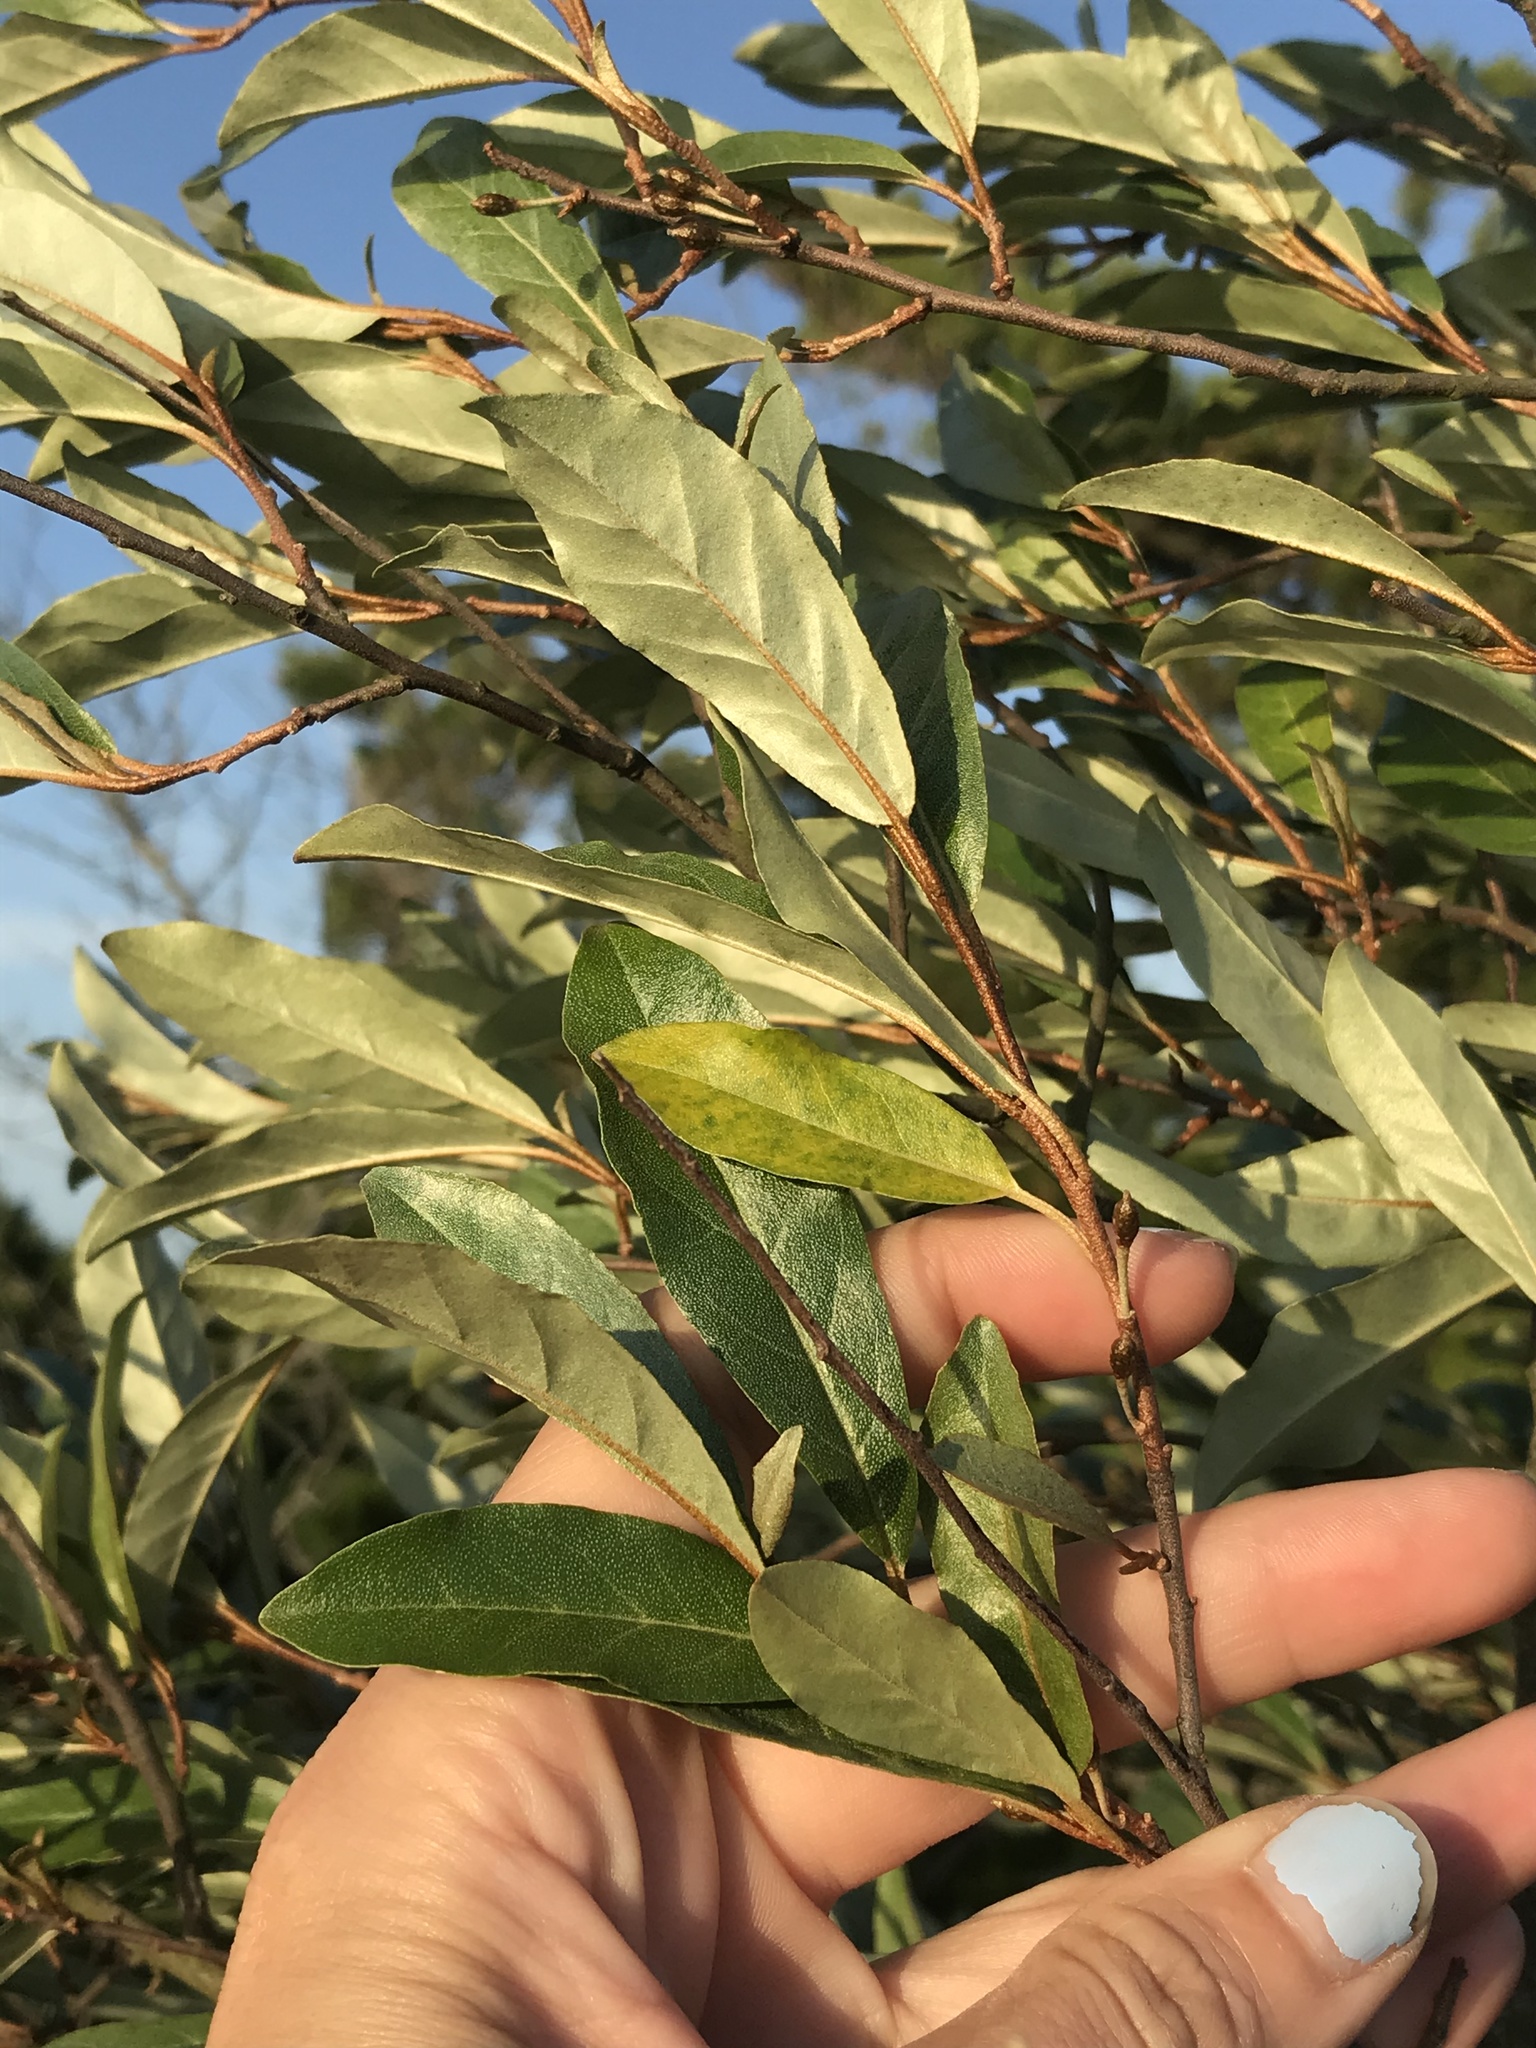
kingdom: Plantae
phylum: Tracheophyta
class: Magnoliopsida
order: Rosales
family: Elaeagnaceae
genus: Elaeagnus
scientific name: Elaeagnus umbellata
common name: Autumn olive
